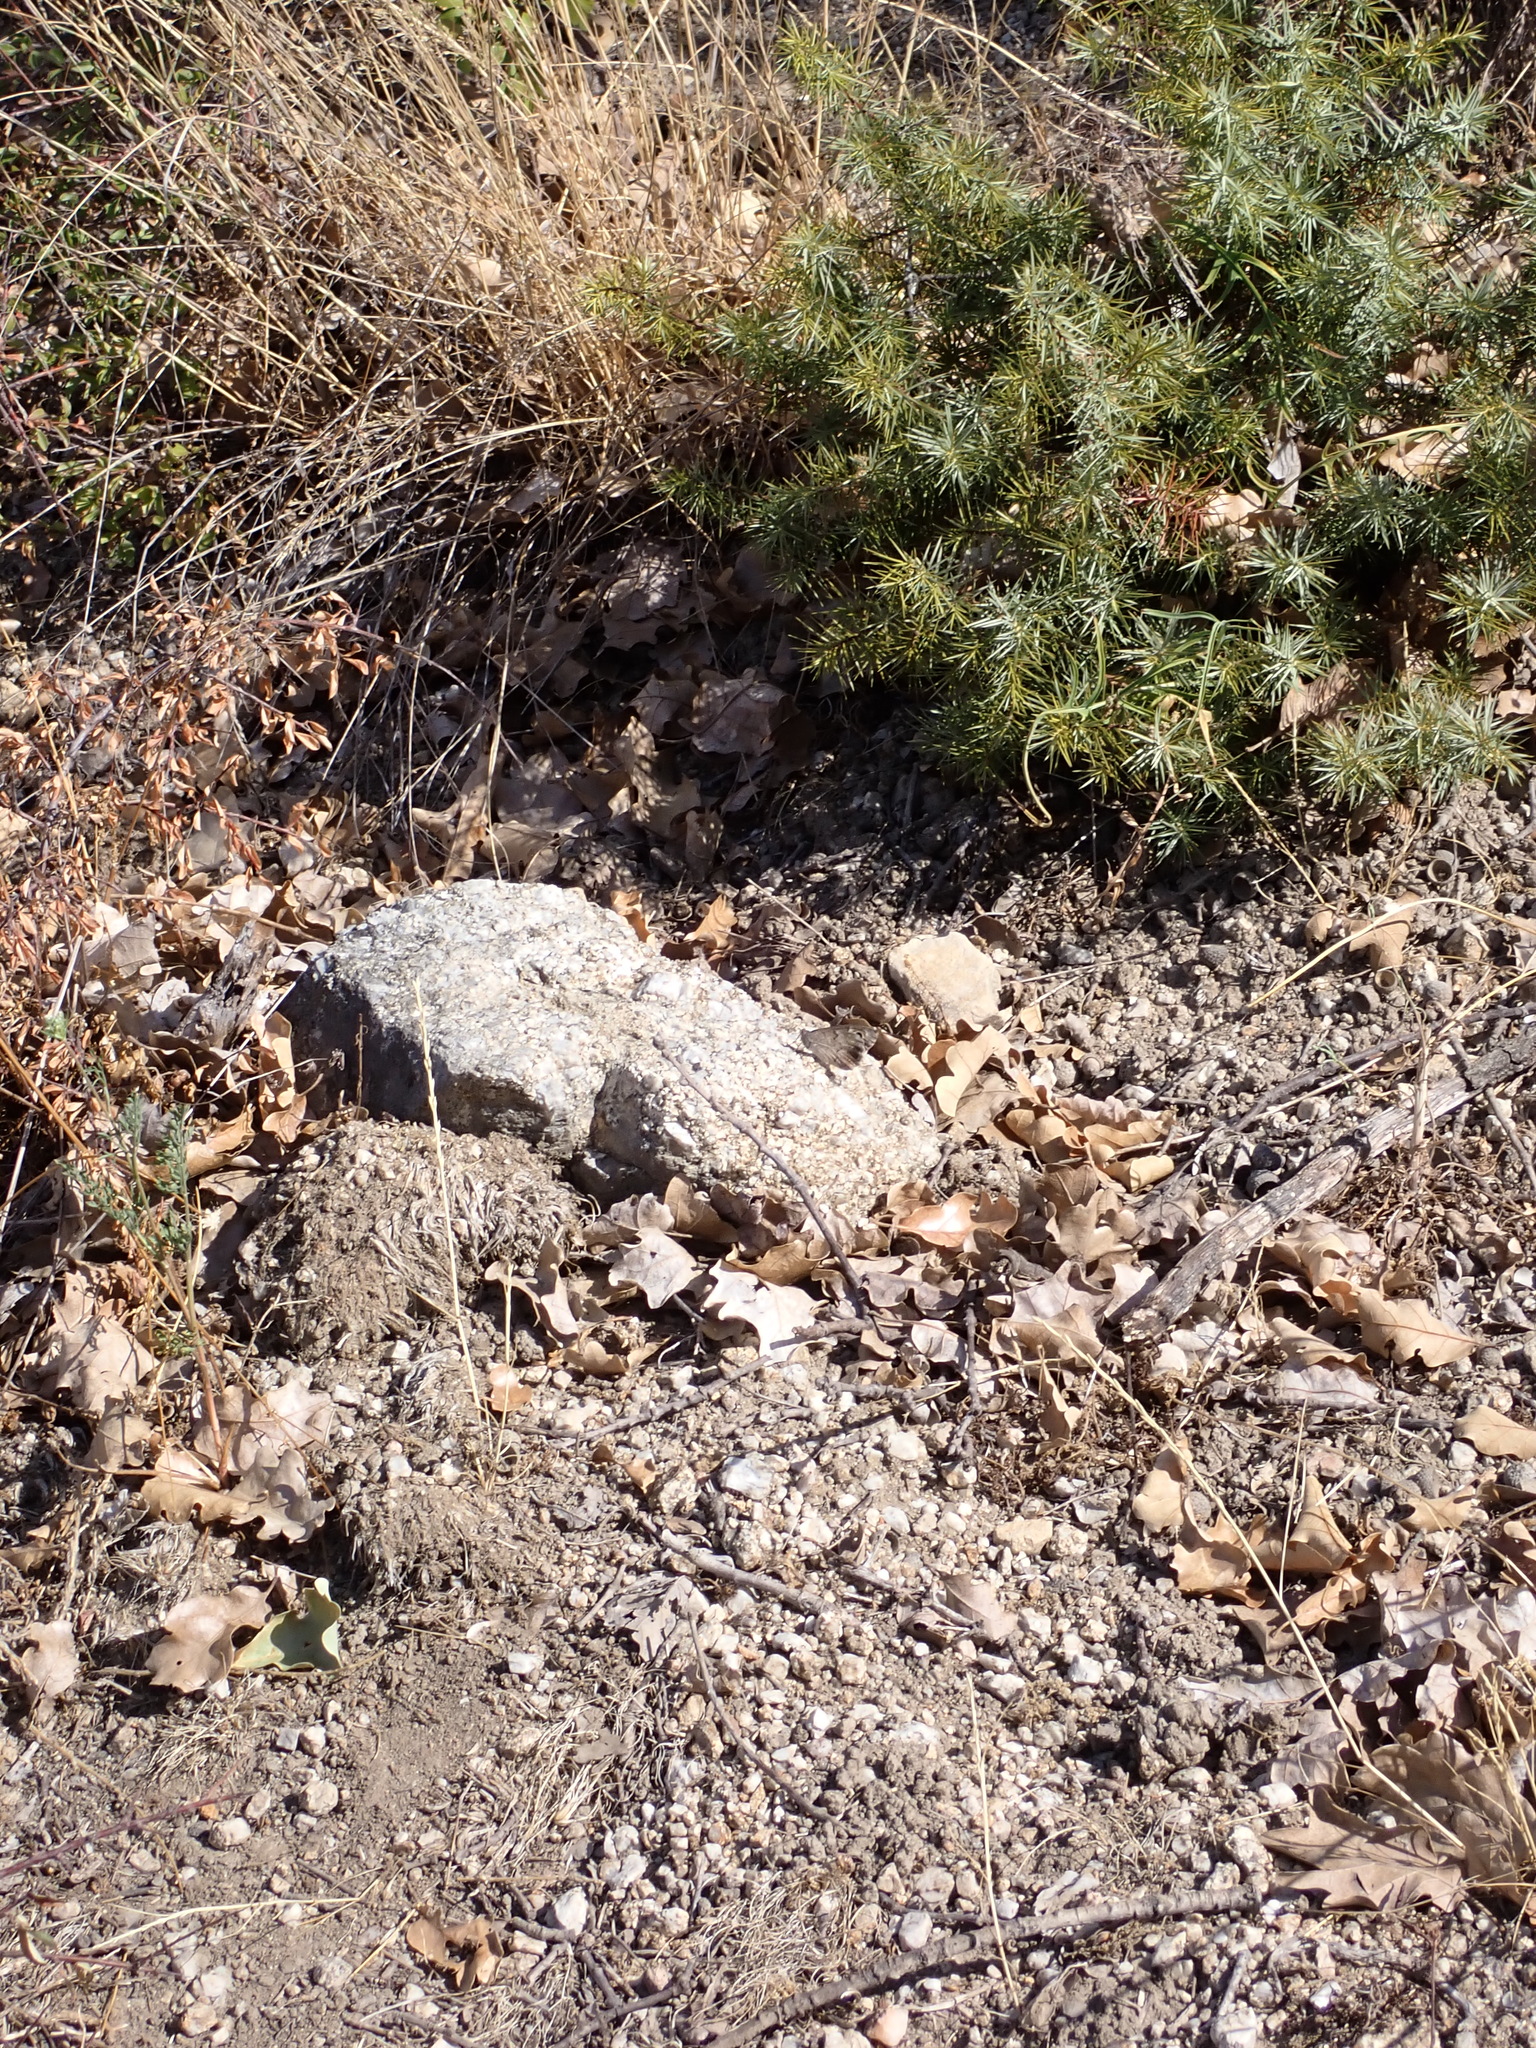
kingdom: Animalia
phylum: Arthropoda
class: Insecta
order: Lepidoptera
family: Nymphalidae
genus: Hipparchia
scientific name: Hipparchia statilinus
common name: Tree grayling
